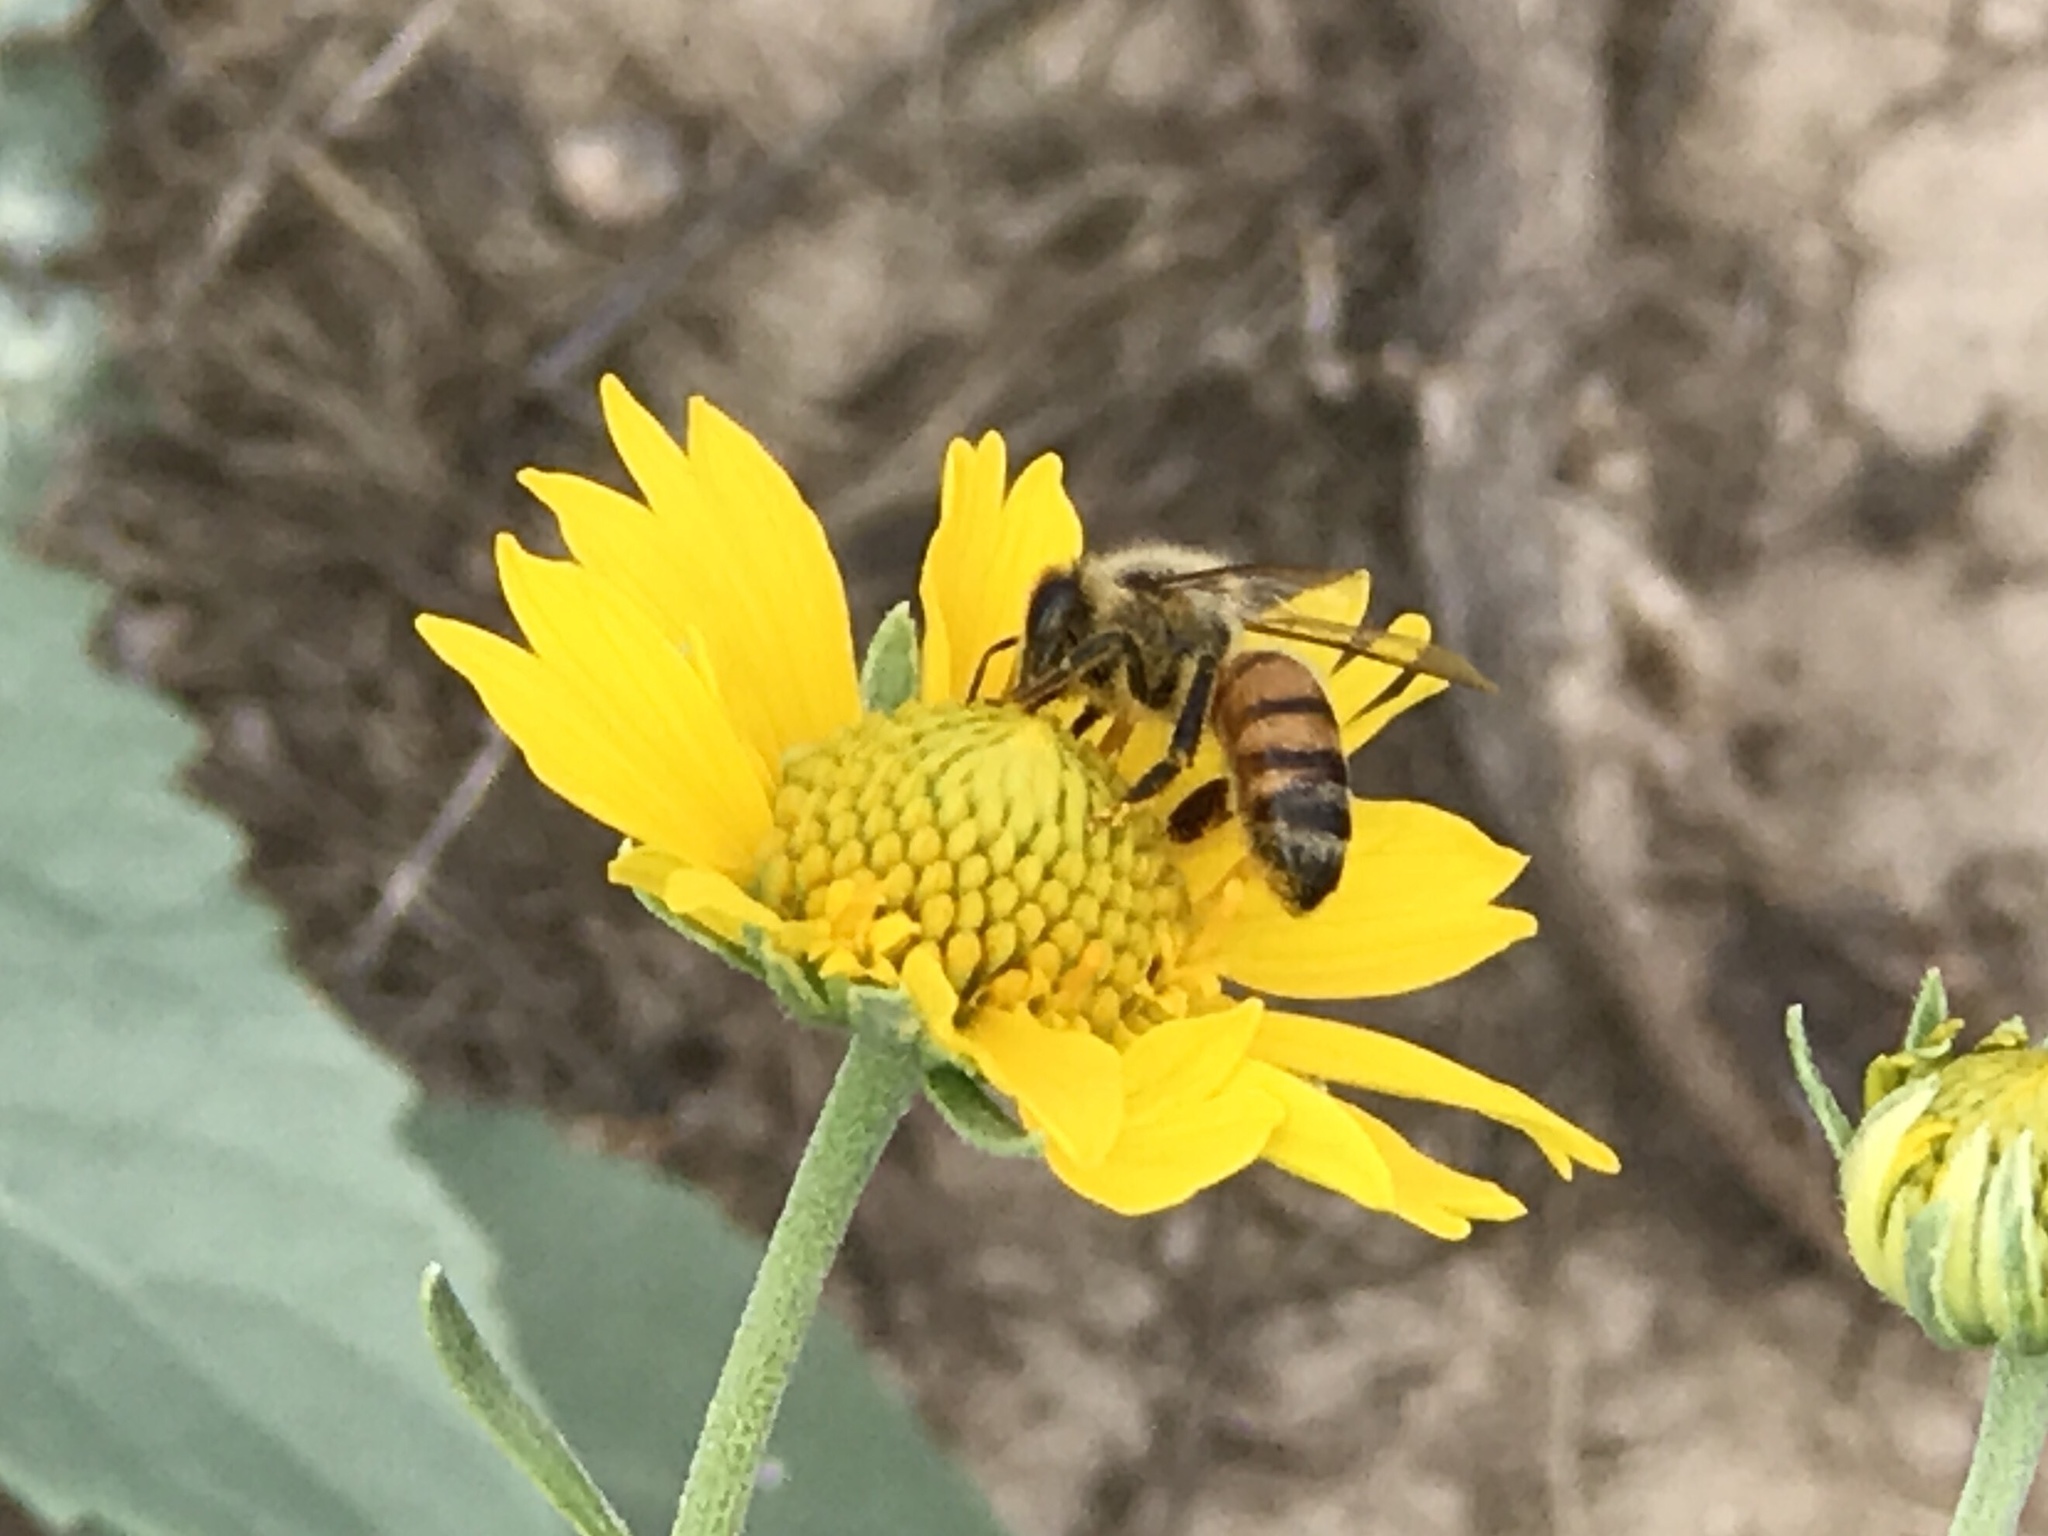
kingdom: Animalia
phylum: Arthropoda
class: Insecta
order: Hymenoptera
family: Apidae
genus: Apis
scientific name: Apis mellifera
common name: Honey bee
